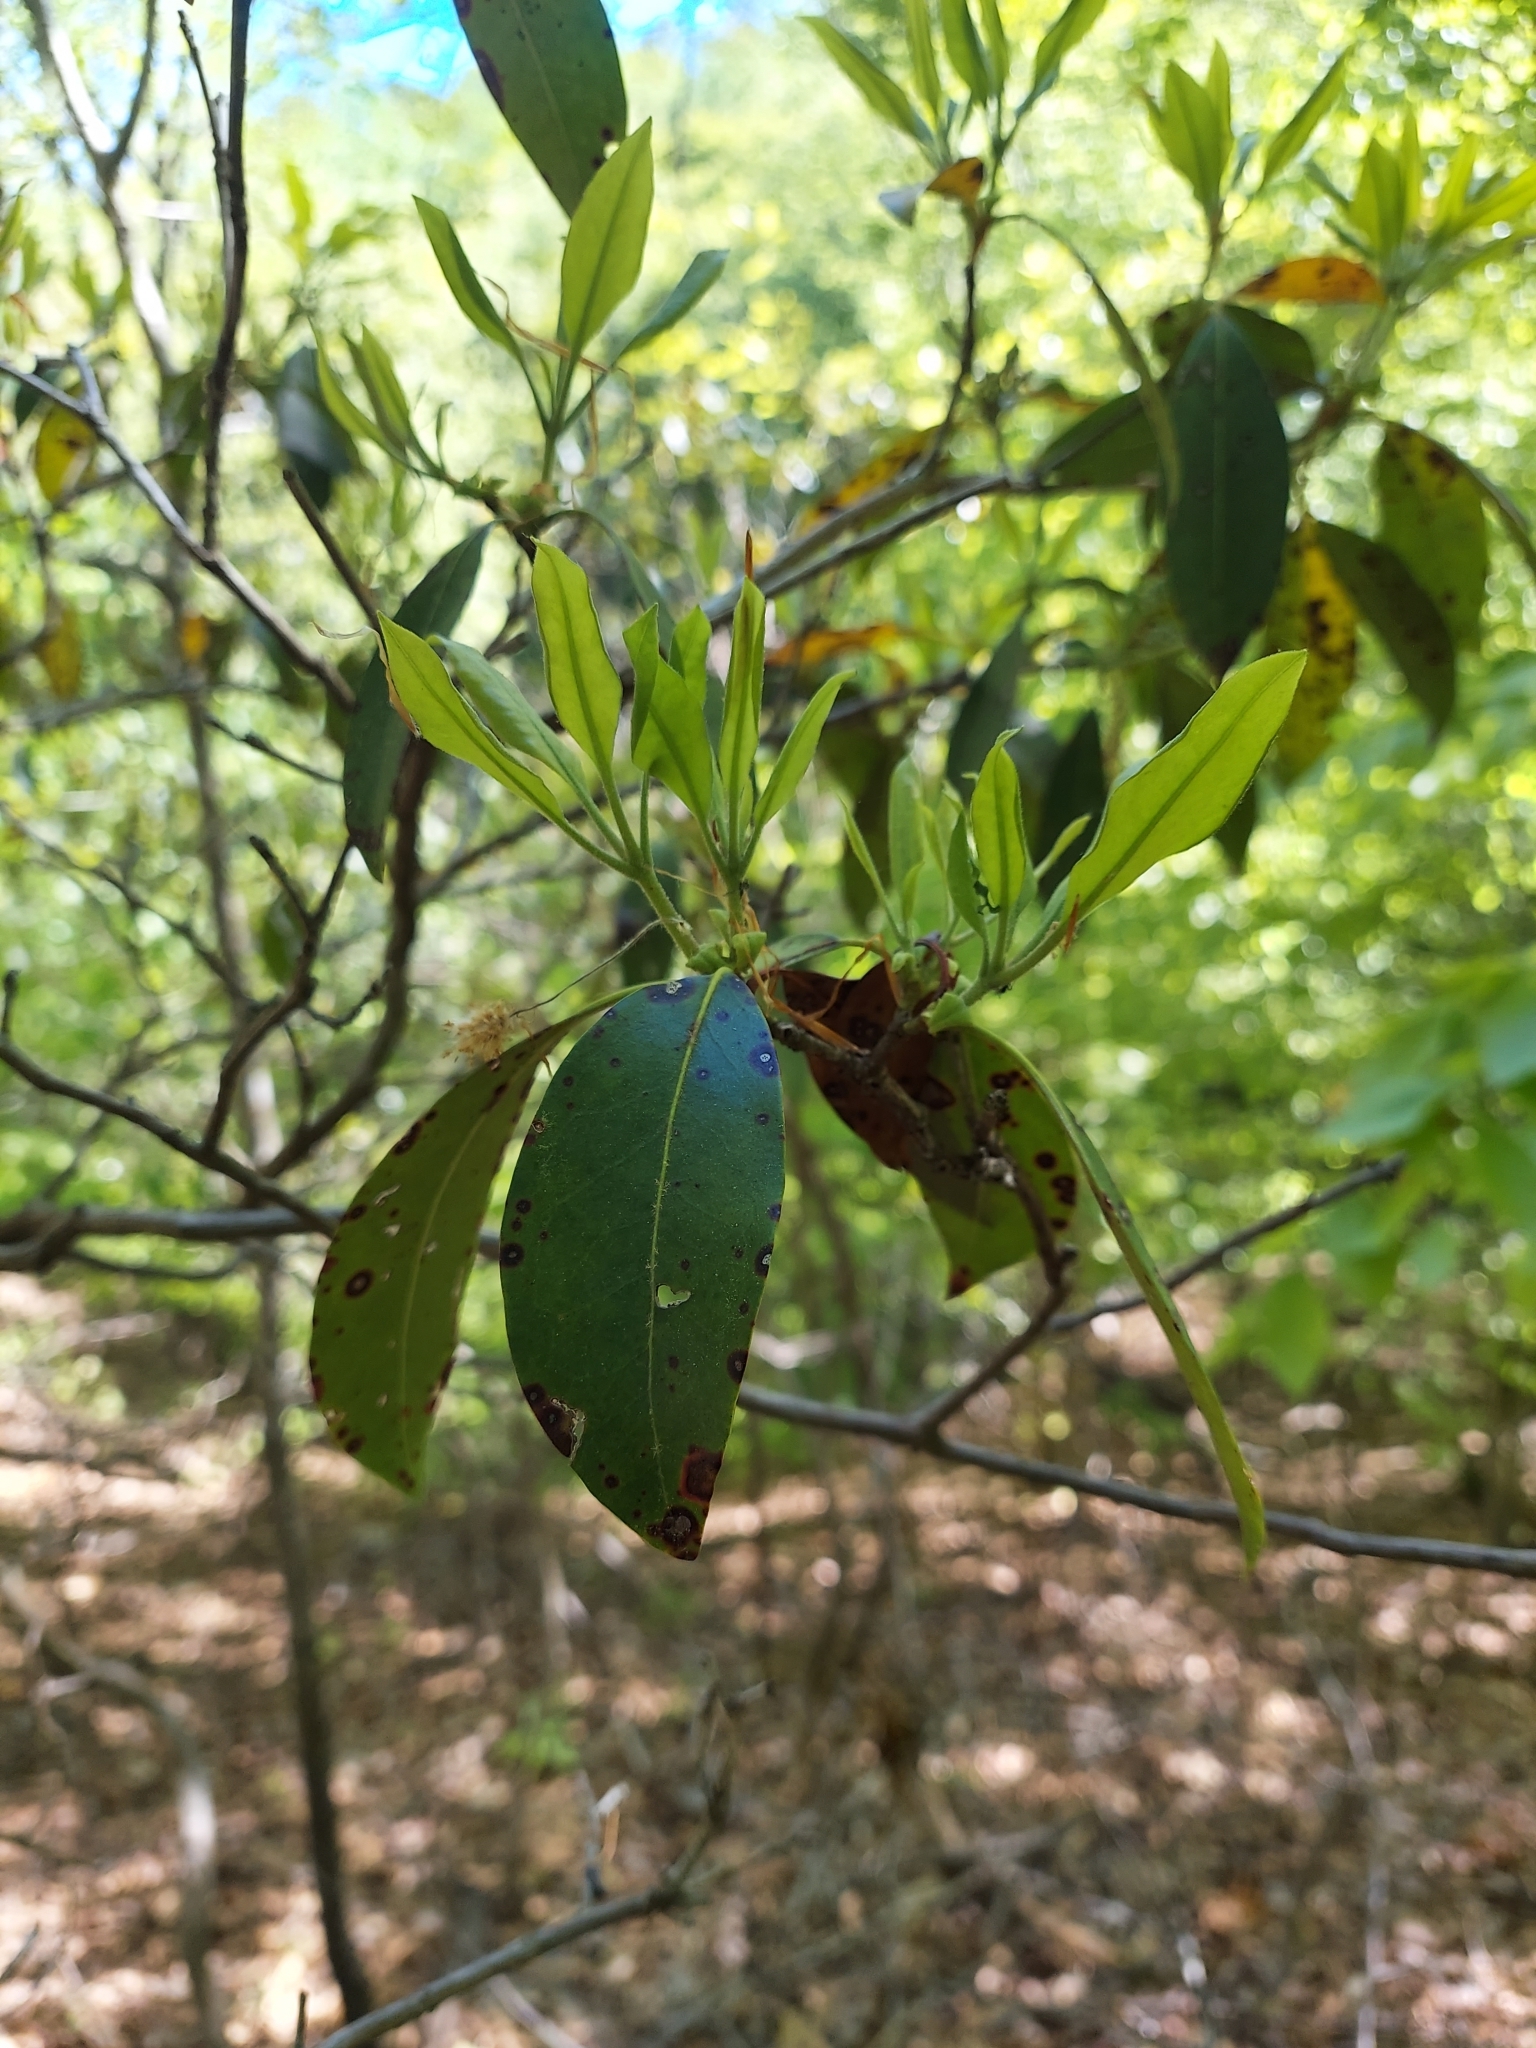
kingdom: Plantae
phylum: Tracheophyta
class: Magnoliopsida
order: Ericales
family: Ericaceae
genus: Kalmia
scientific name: Kalmia latifolia
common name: Mountain-laurel
